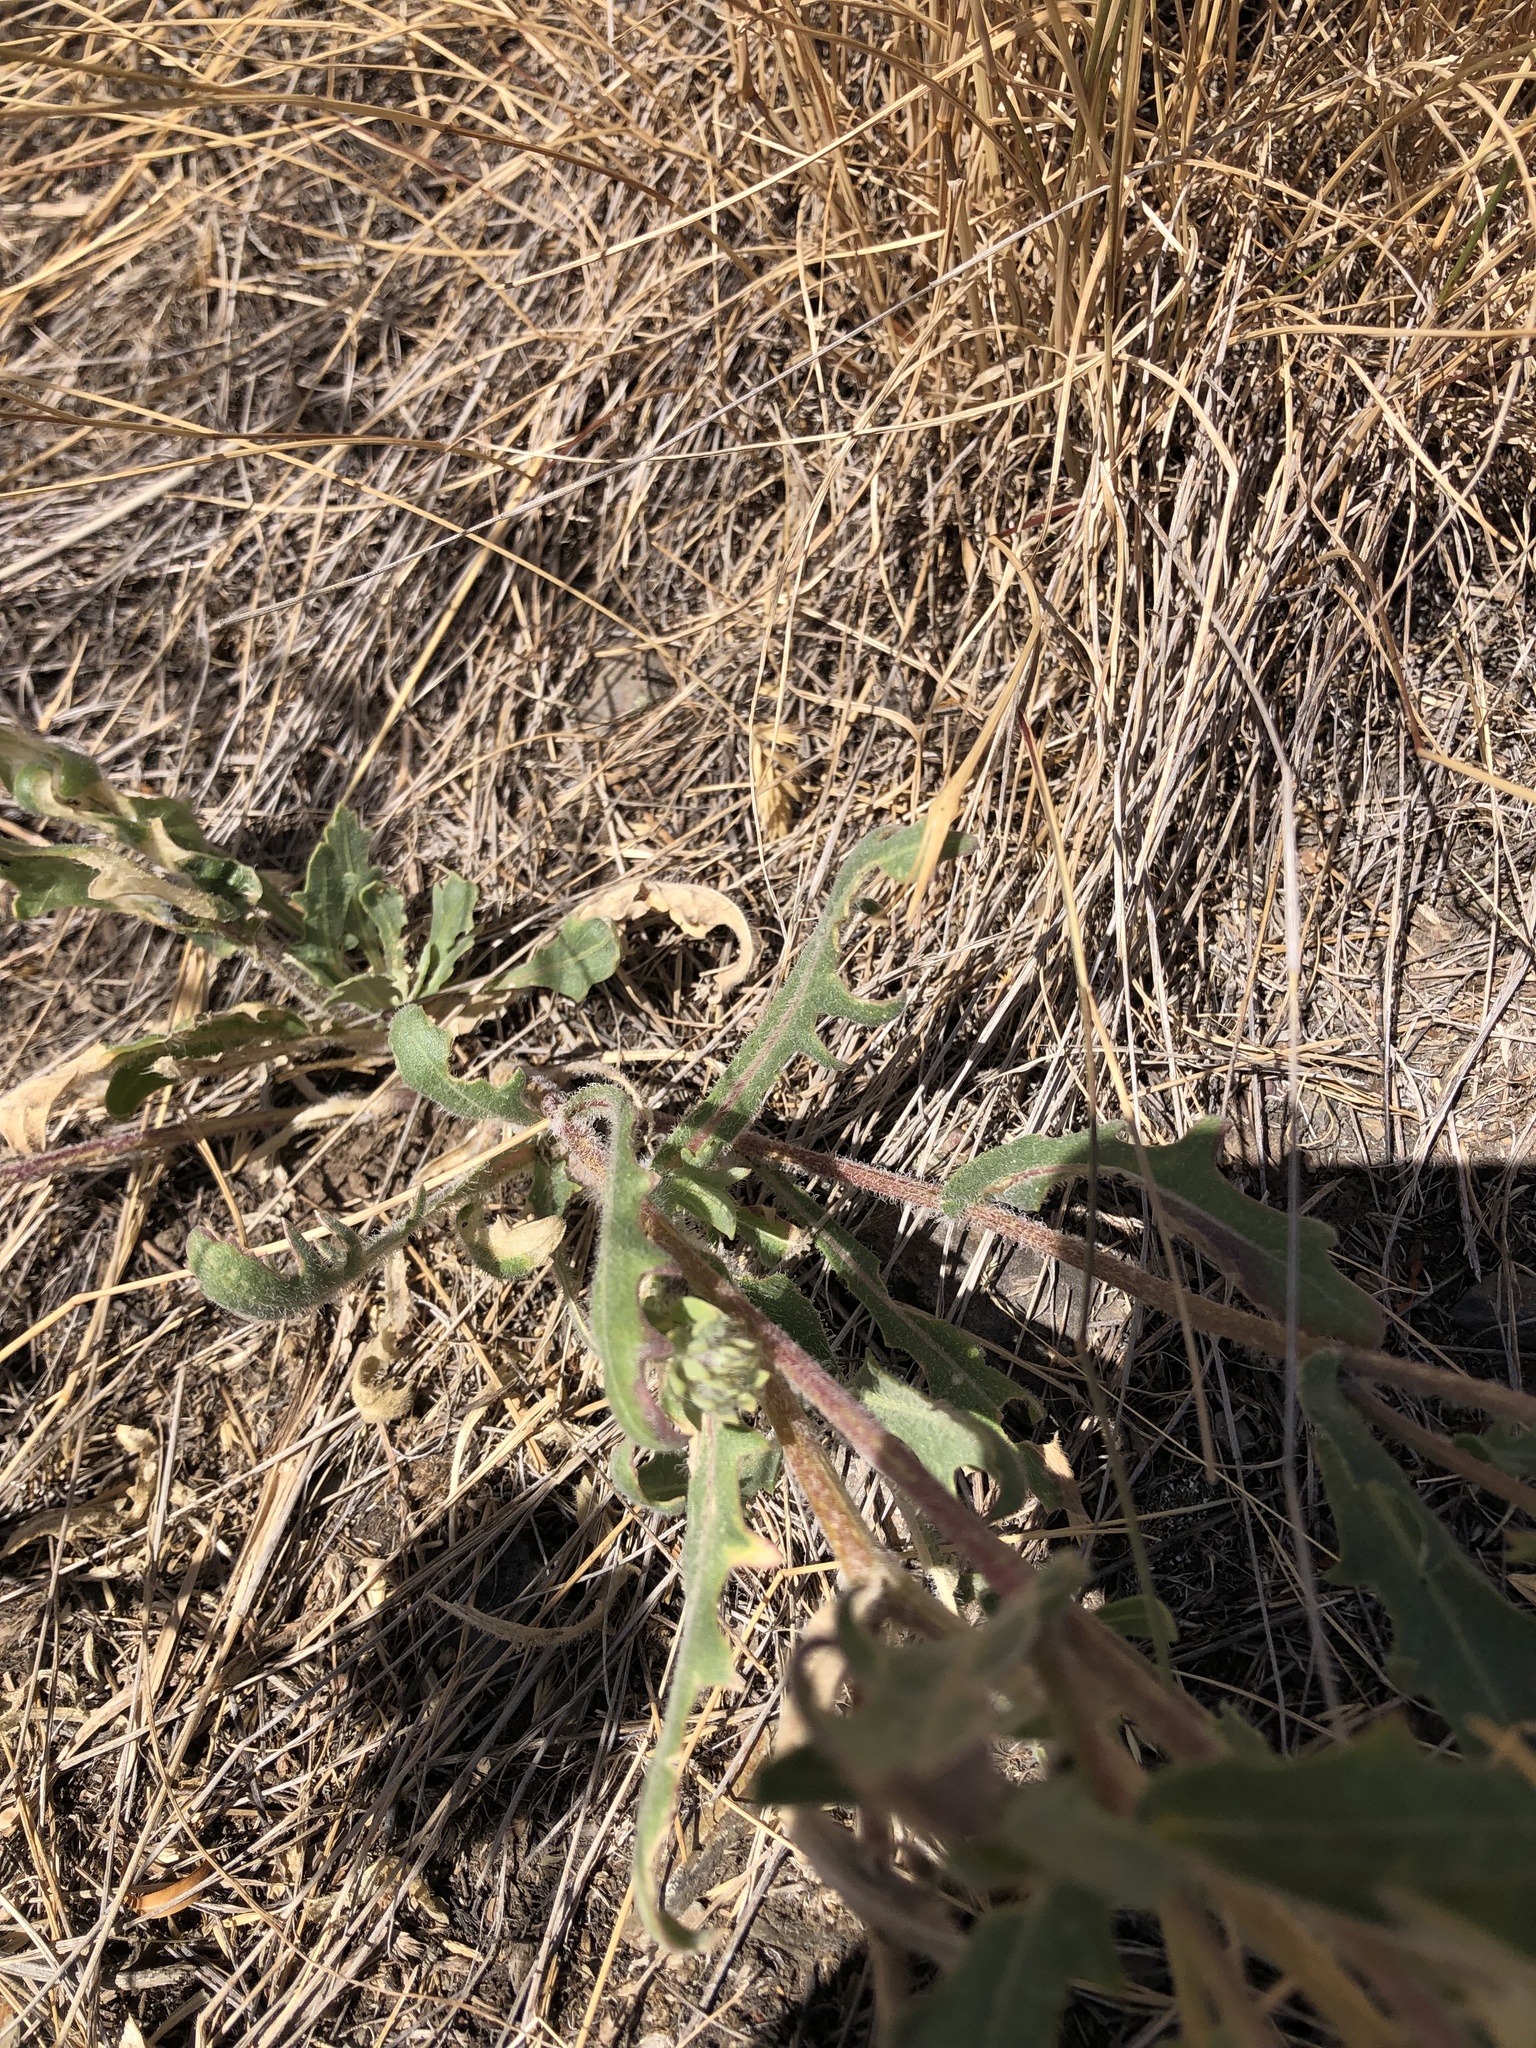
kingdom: Plantae
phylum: Tracheophyta
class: Magnoliopsida
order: Asterales
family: Asteraceae
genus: Gaillardia
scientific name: Gaillardia aristata
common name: Blanket-flower
